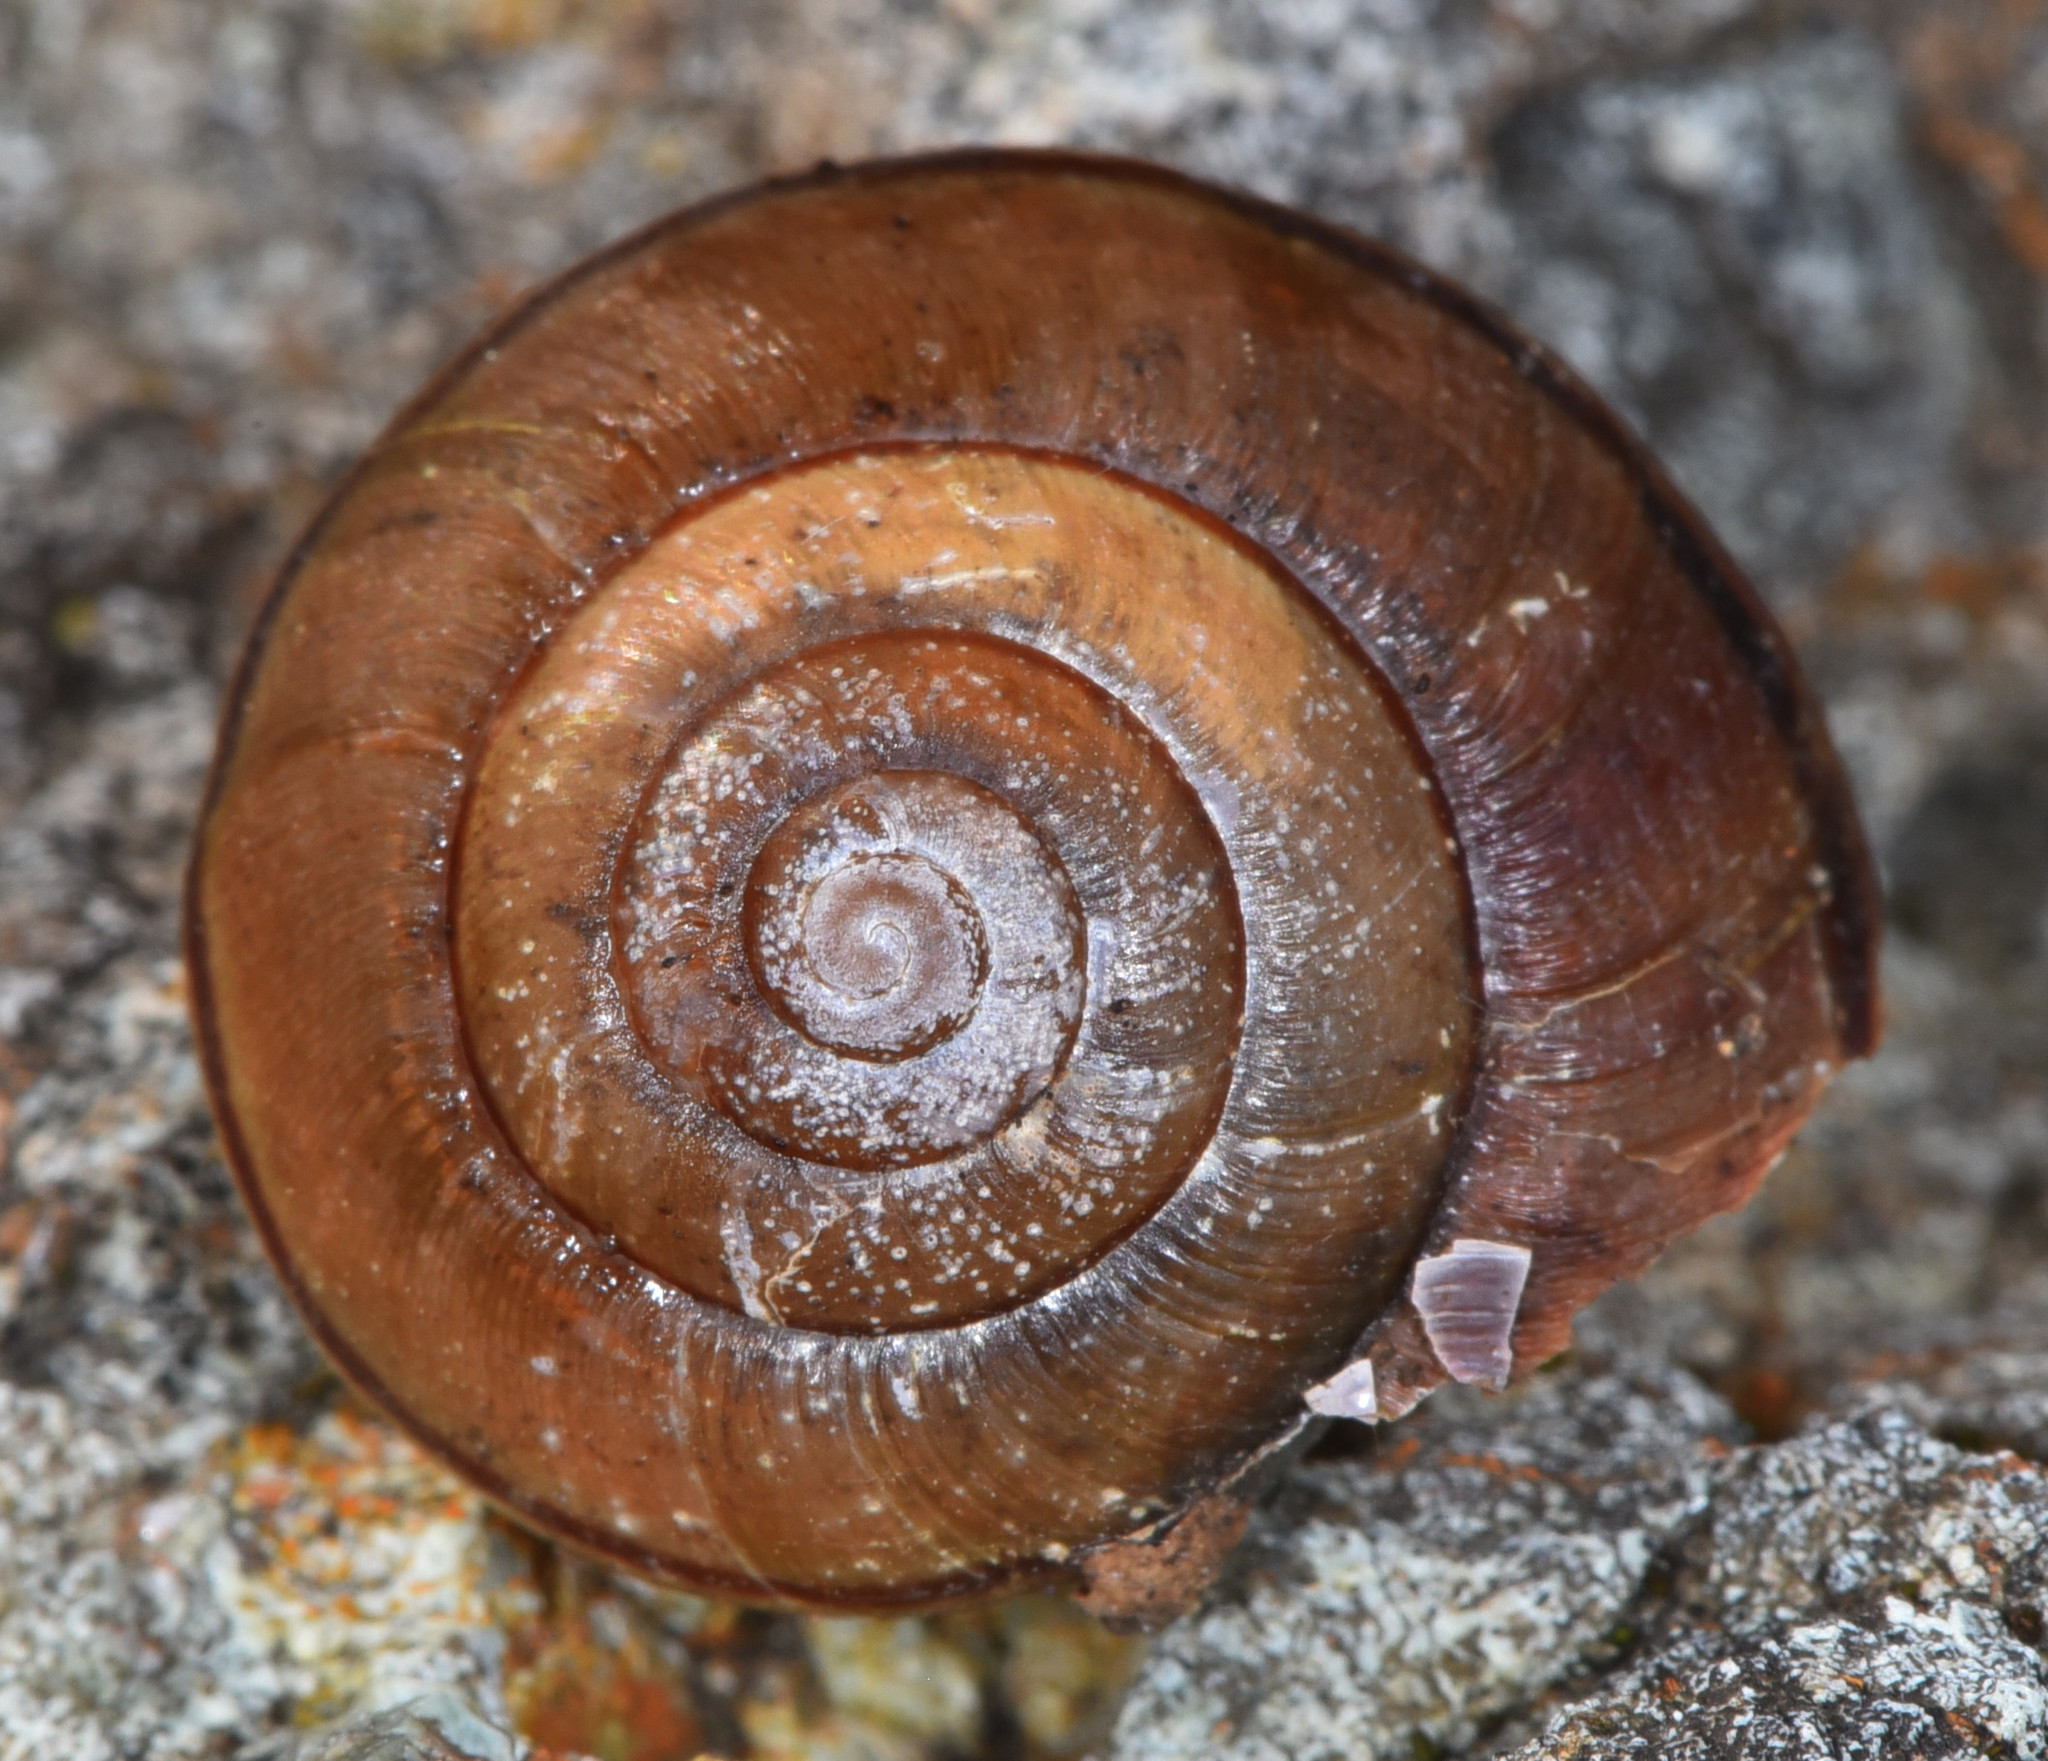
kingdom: Animalia
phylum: Mollusca
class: Gastropoda
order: Stylommatophora
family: Xanthonychidae
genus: Helminthoglypta
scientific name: Helminthoglypta nickliniana
